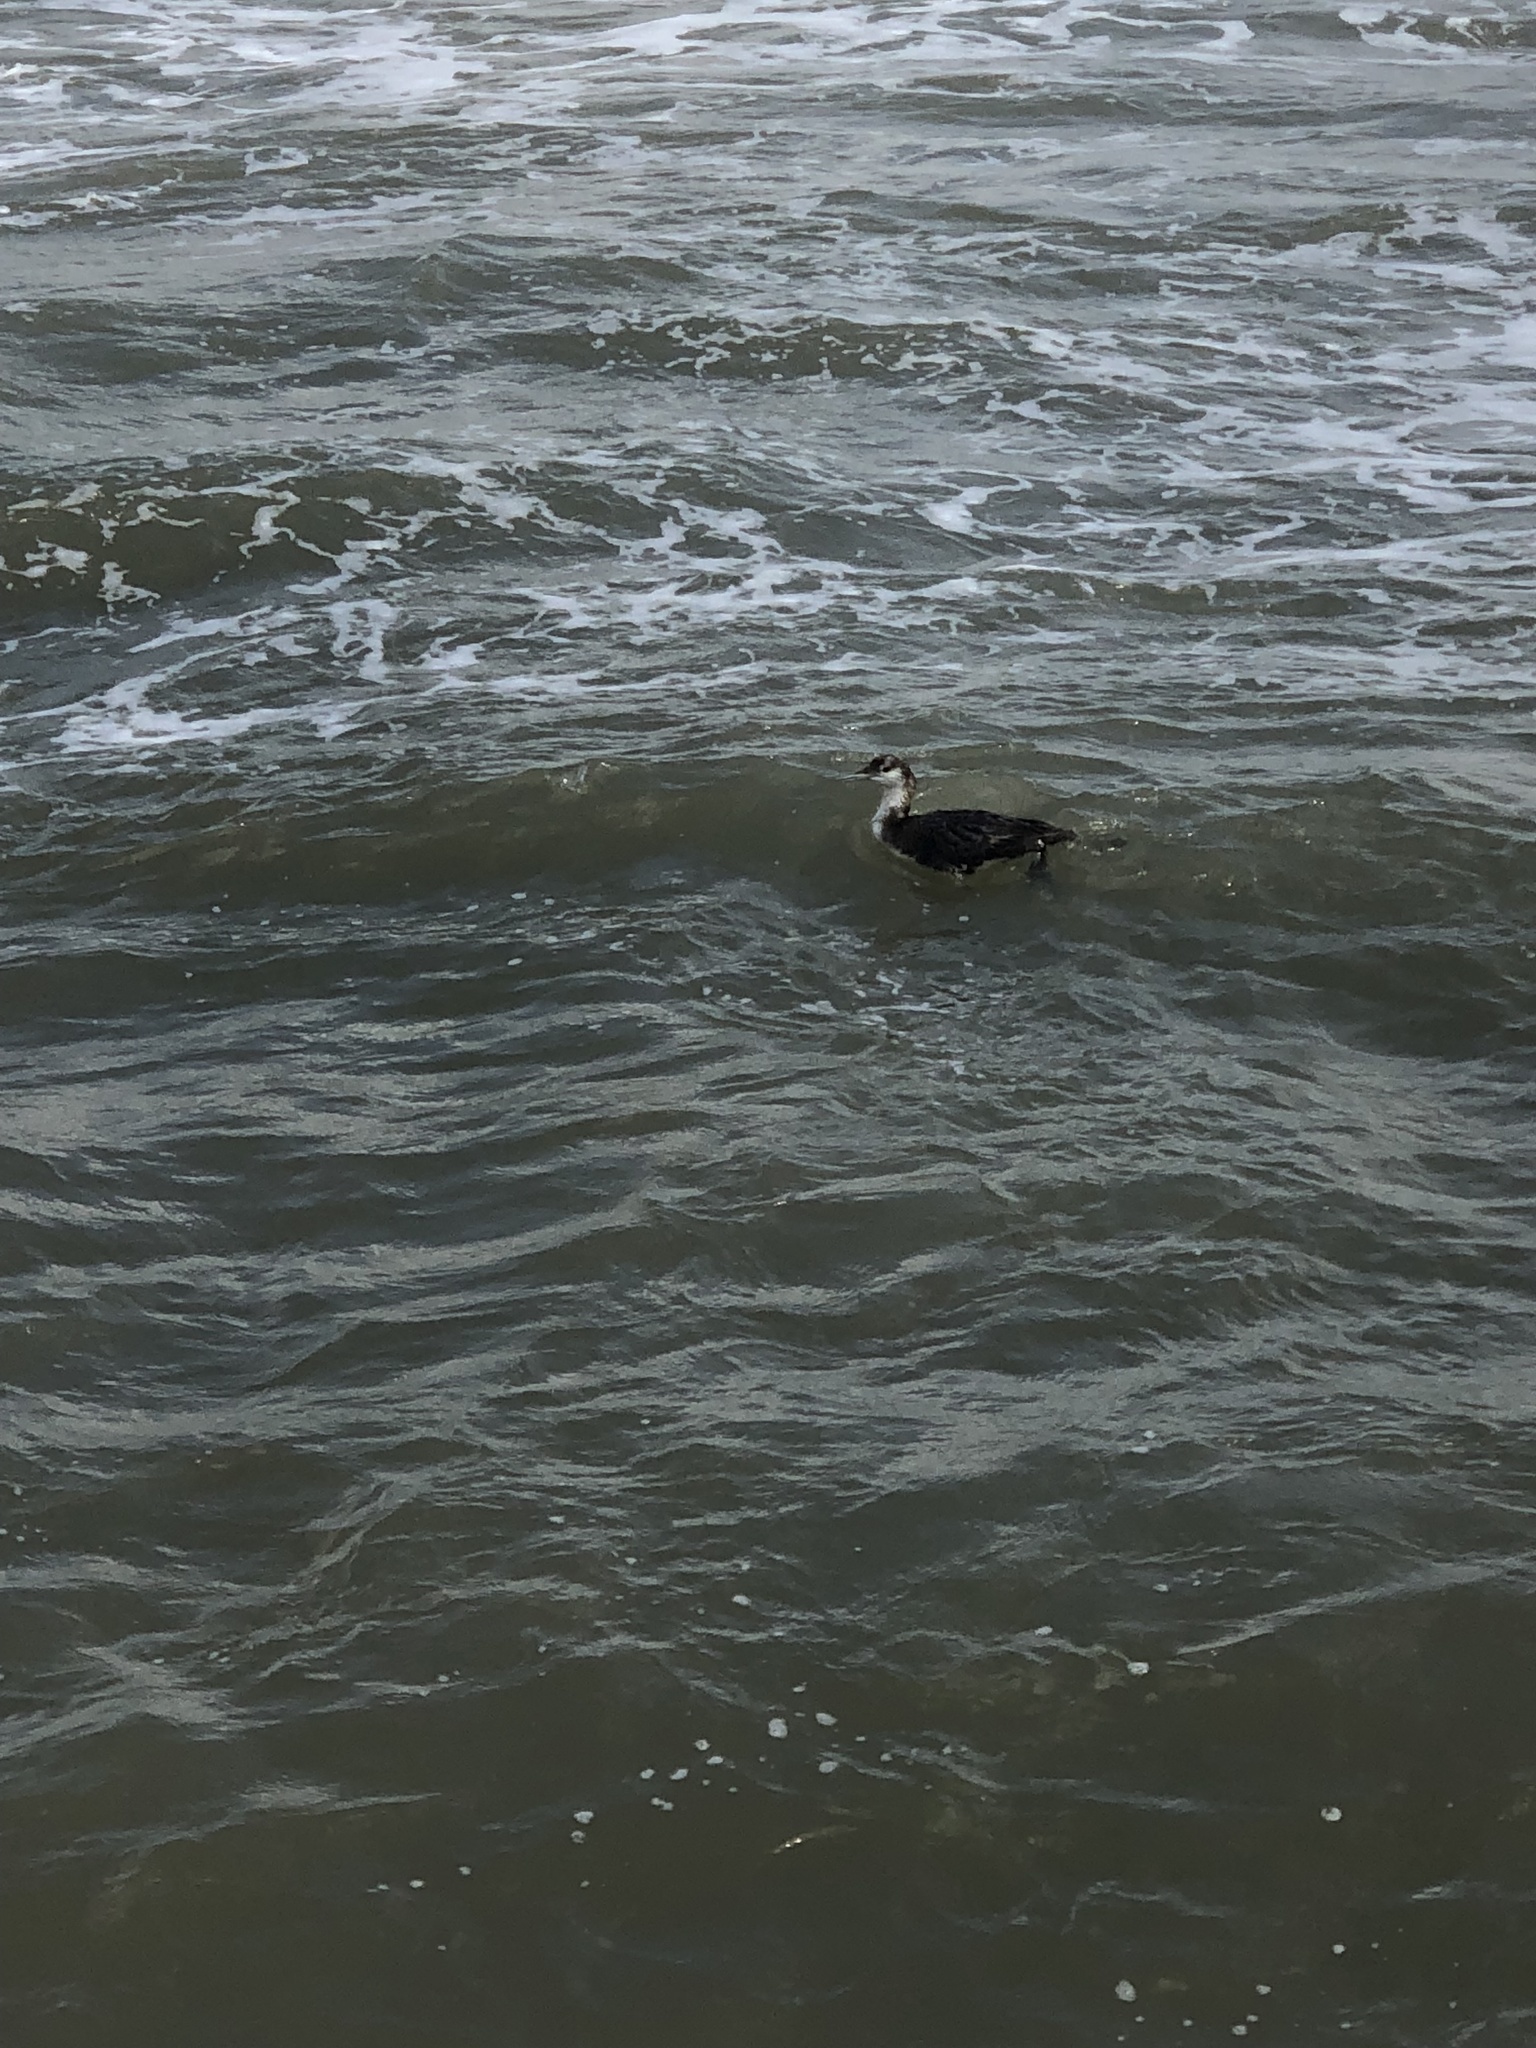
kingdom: Animalia
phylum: Chordata
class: Aves
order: Gaviiformes
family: Gaviidae
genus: Gavia
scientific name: Gavia immer
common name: Common loon
